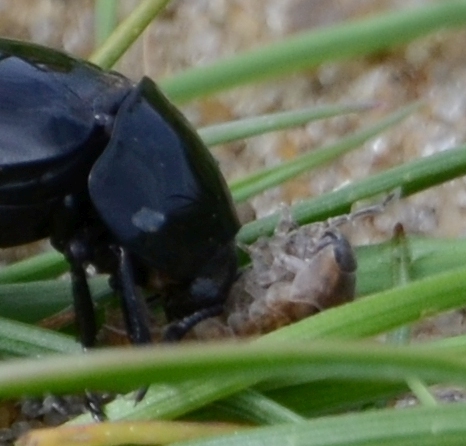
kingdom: Animalia
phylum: Arthropoda
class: Malacostraca
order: Isopoda
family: Armadillidiidae
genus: Armadillidium
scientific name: Armadillidium vulgare
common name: Common pill woodlouse
